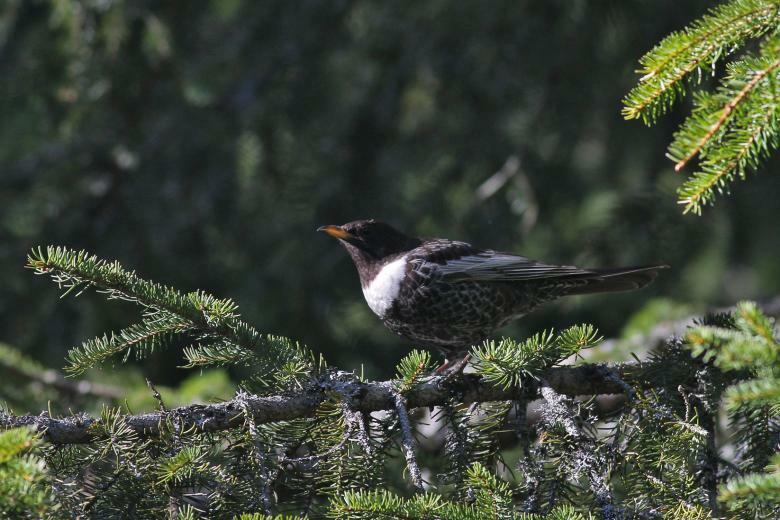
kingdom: Animalia
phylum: Chordata
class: Aves
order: Passeriformes
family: Turdidae
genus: Turdus
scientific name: Turdus torquatus
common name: Ring ouzel
